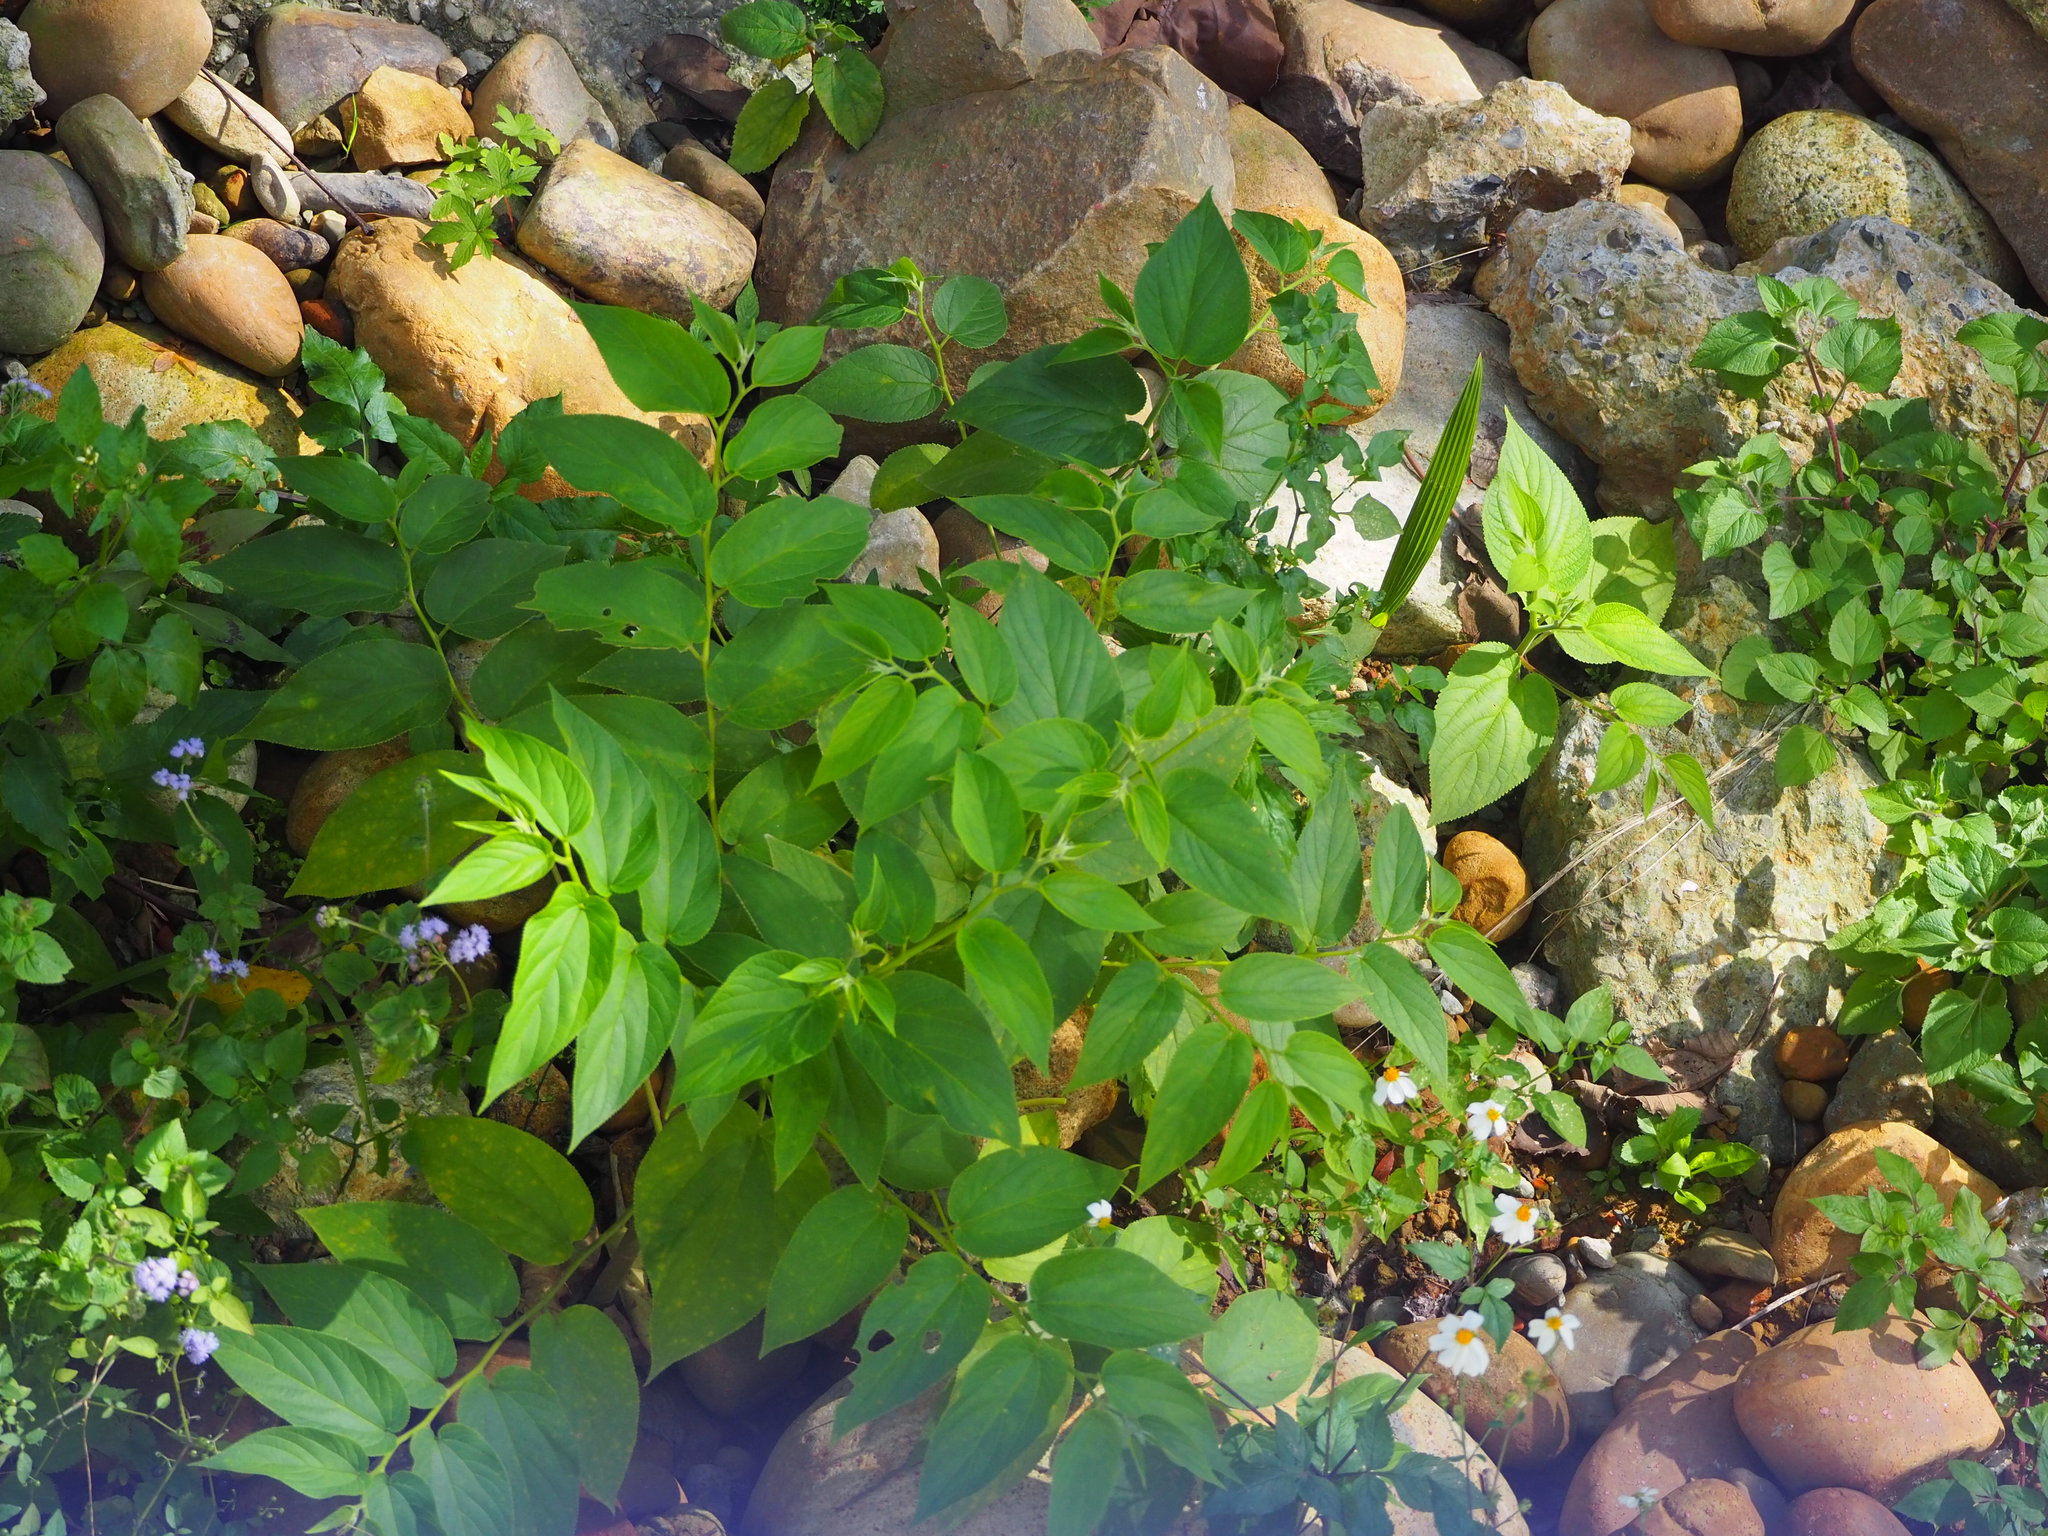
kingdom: Plantae
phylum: Tracheophyta
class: Magnoliopsida
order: Rosales
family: Cannabaceae
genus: Trema
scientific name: Trema orientale
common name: Indian charcoal tree
